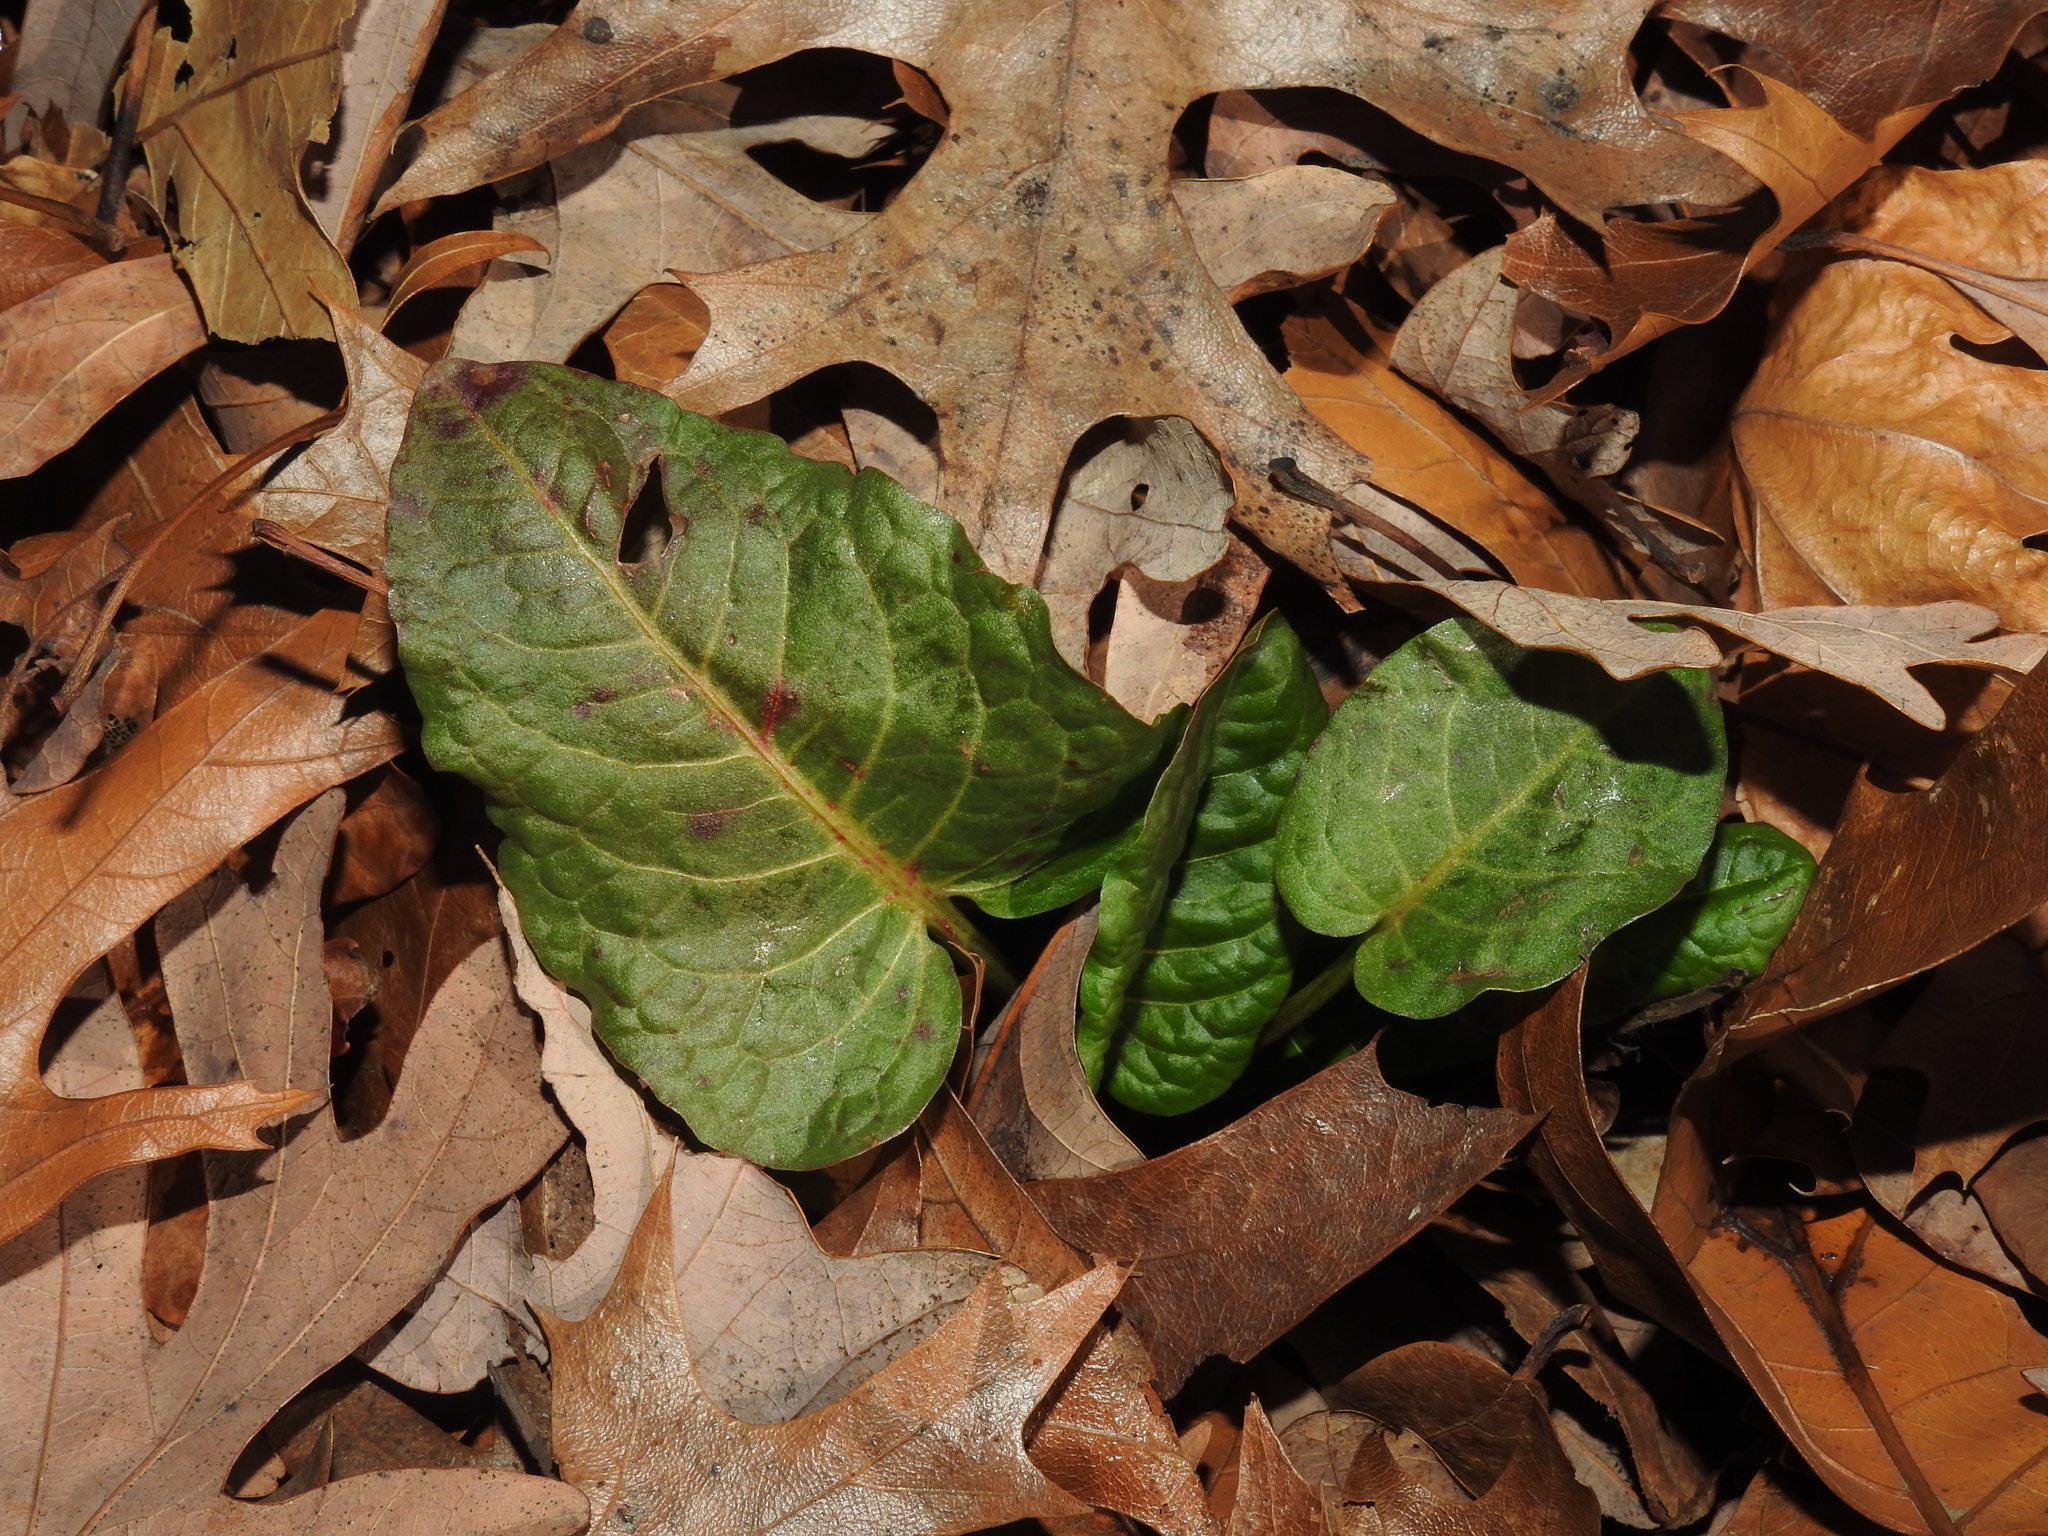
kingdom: Plantae
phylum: Tracheophyta
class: Magnoliopsida
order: Caryophyllales
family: Polygonaceae
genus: Rumex
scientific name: Rumex obtusifolius
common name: Bitter dock
